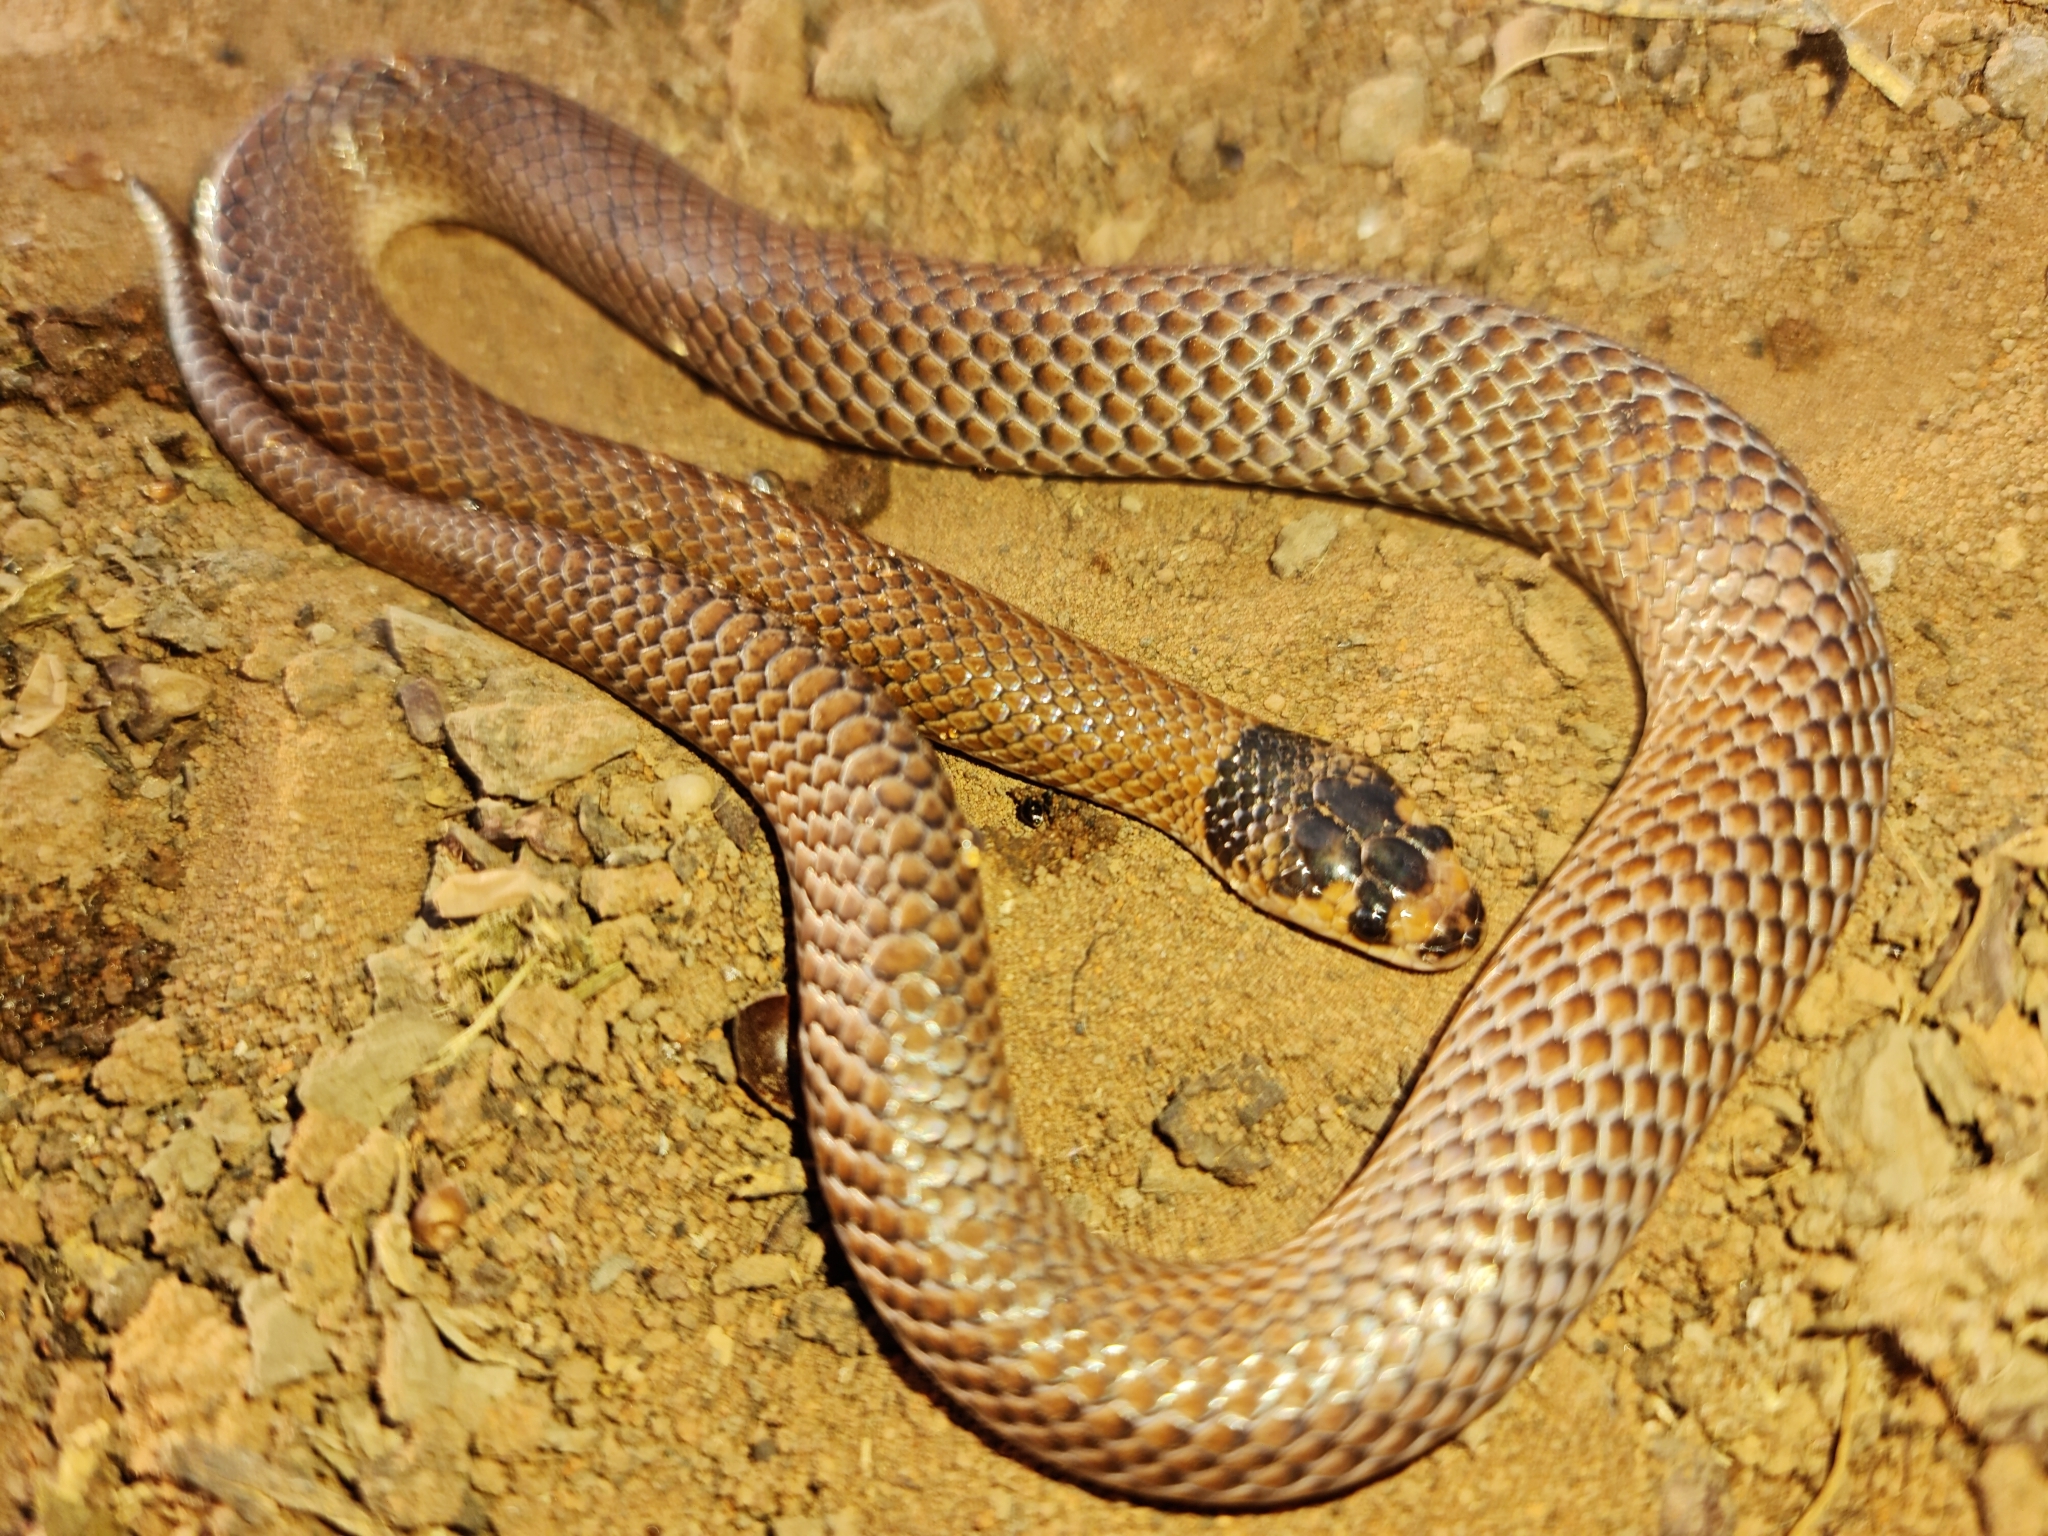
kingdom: Animalia
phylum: Chordata
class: Squamata
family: Elapidae
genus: Suta
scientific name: Suta spectabilis
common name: Bush’s hooded snake
